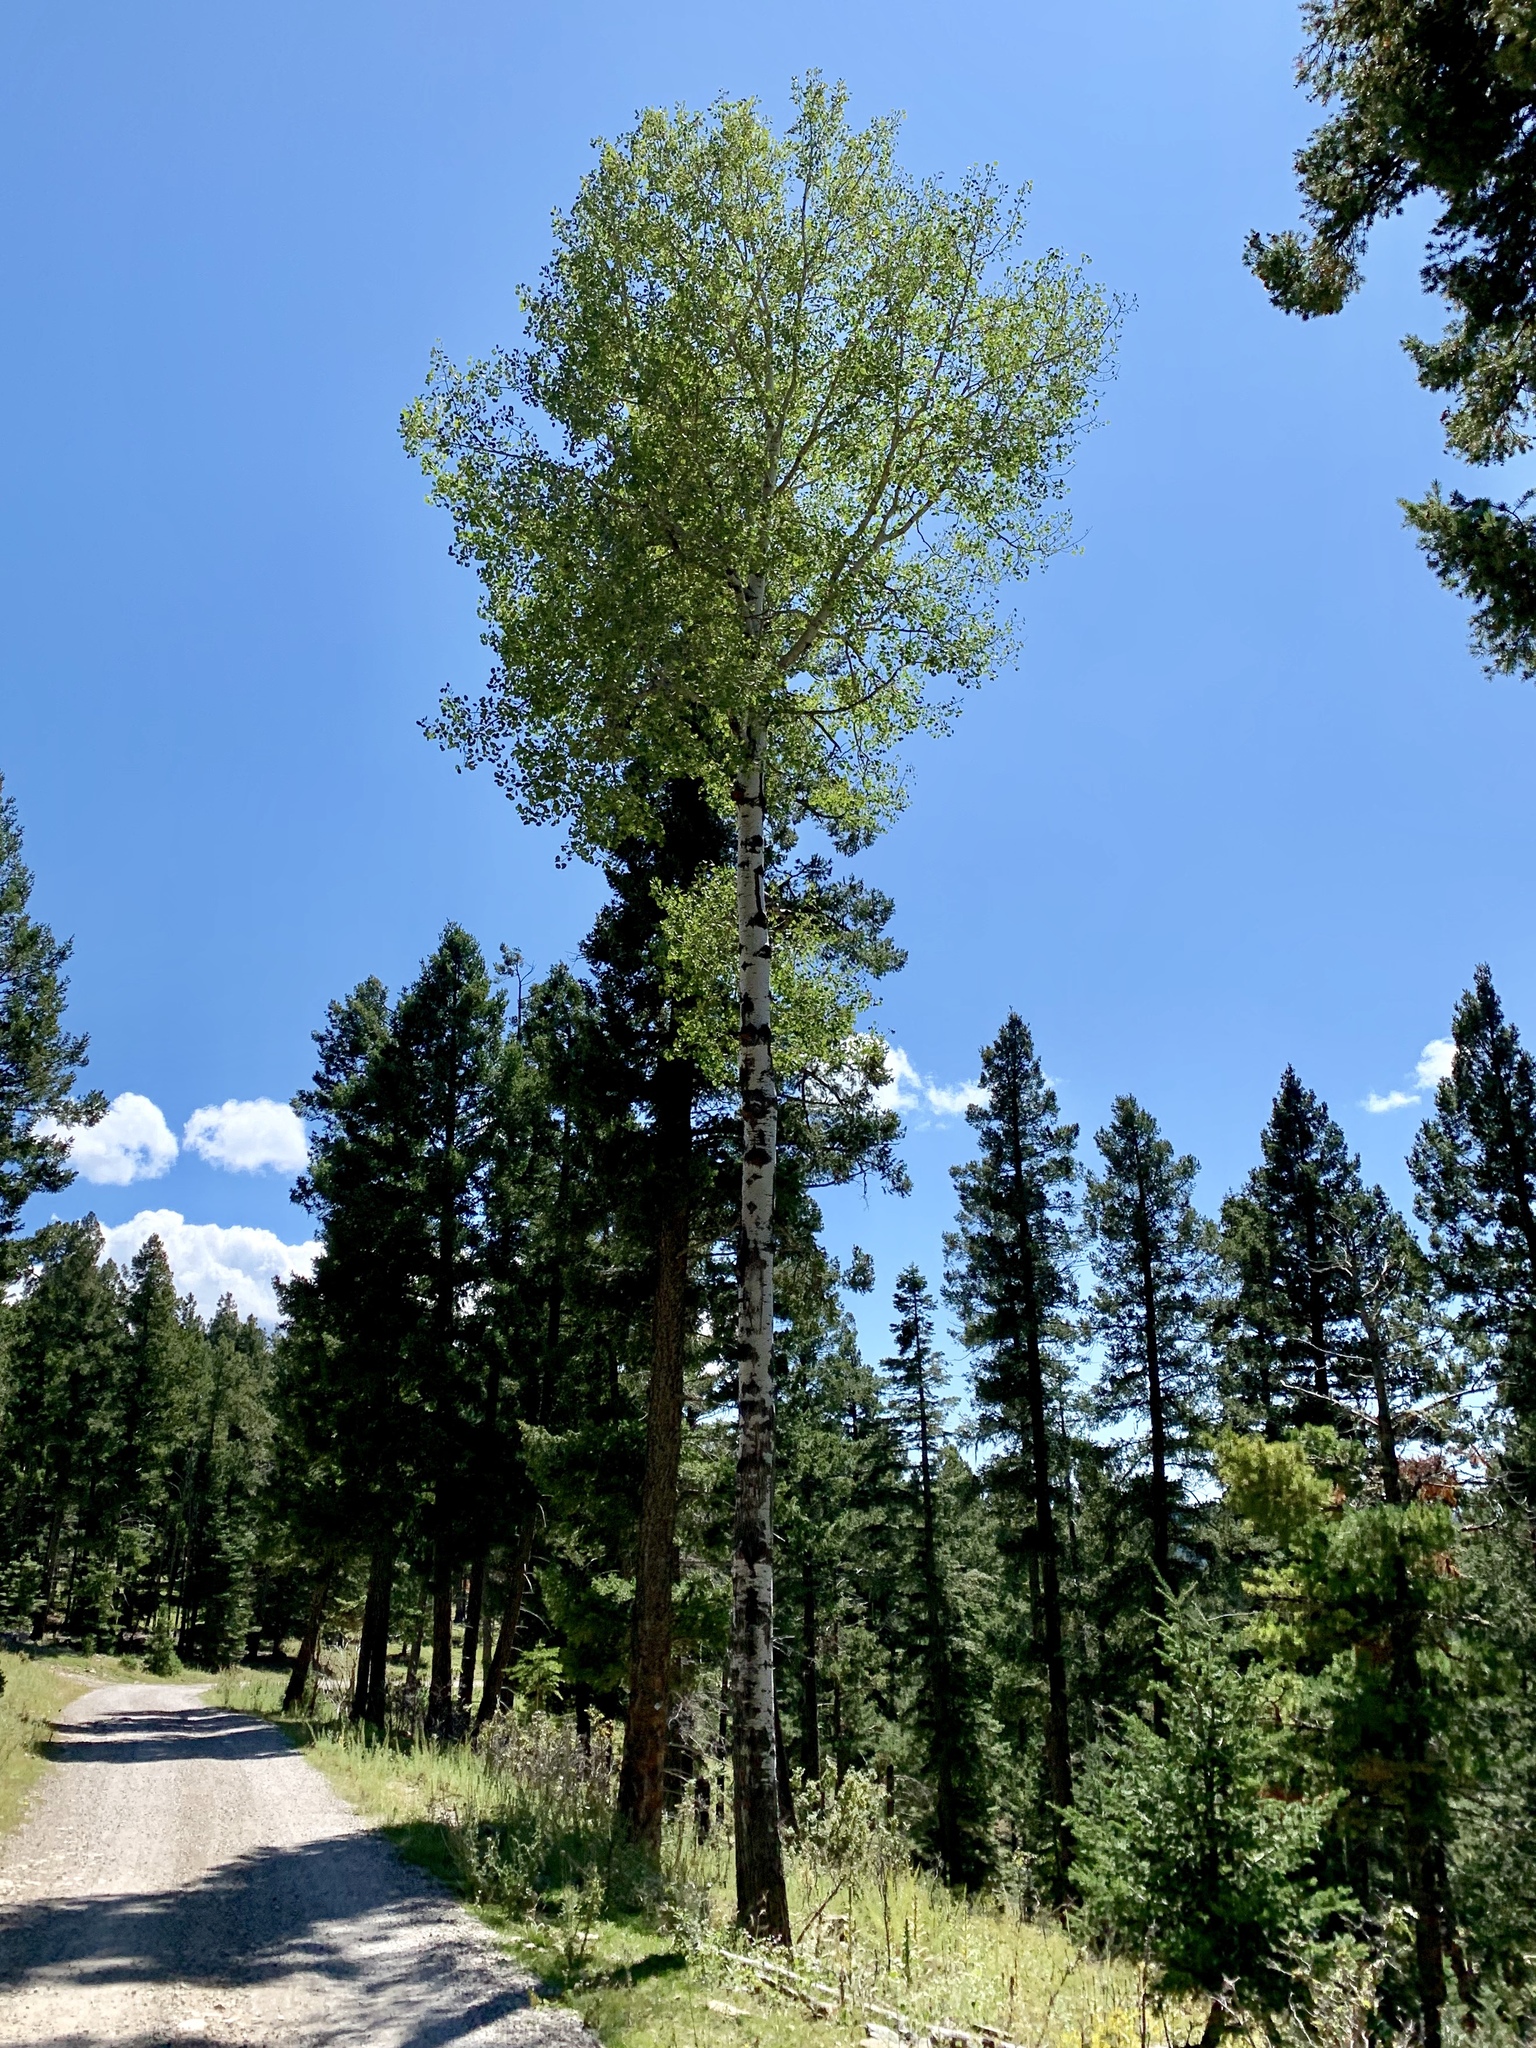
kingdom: Plantae
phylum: Tracheophyta
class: Magnoliopsida
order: Malpighiales
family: Salicaceae
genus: Populus
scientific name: Populus tremuloides
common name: Quaking aspen
